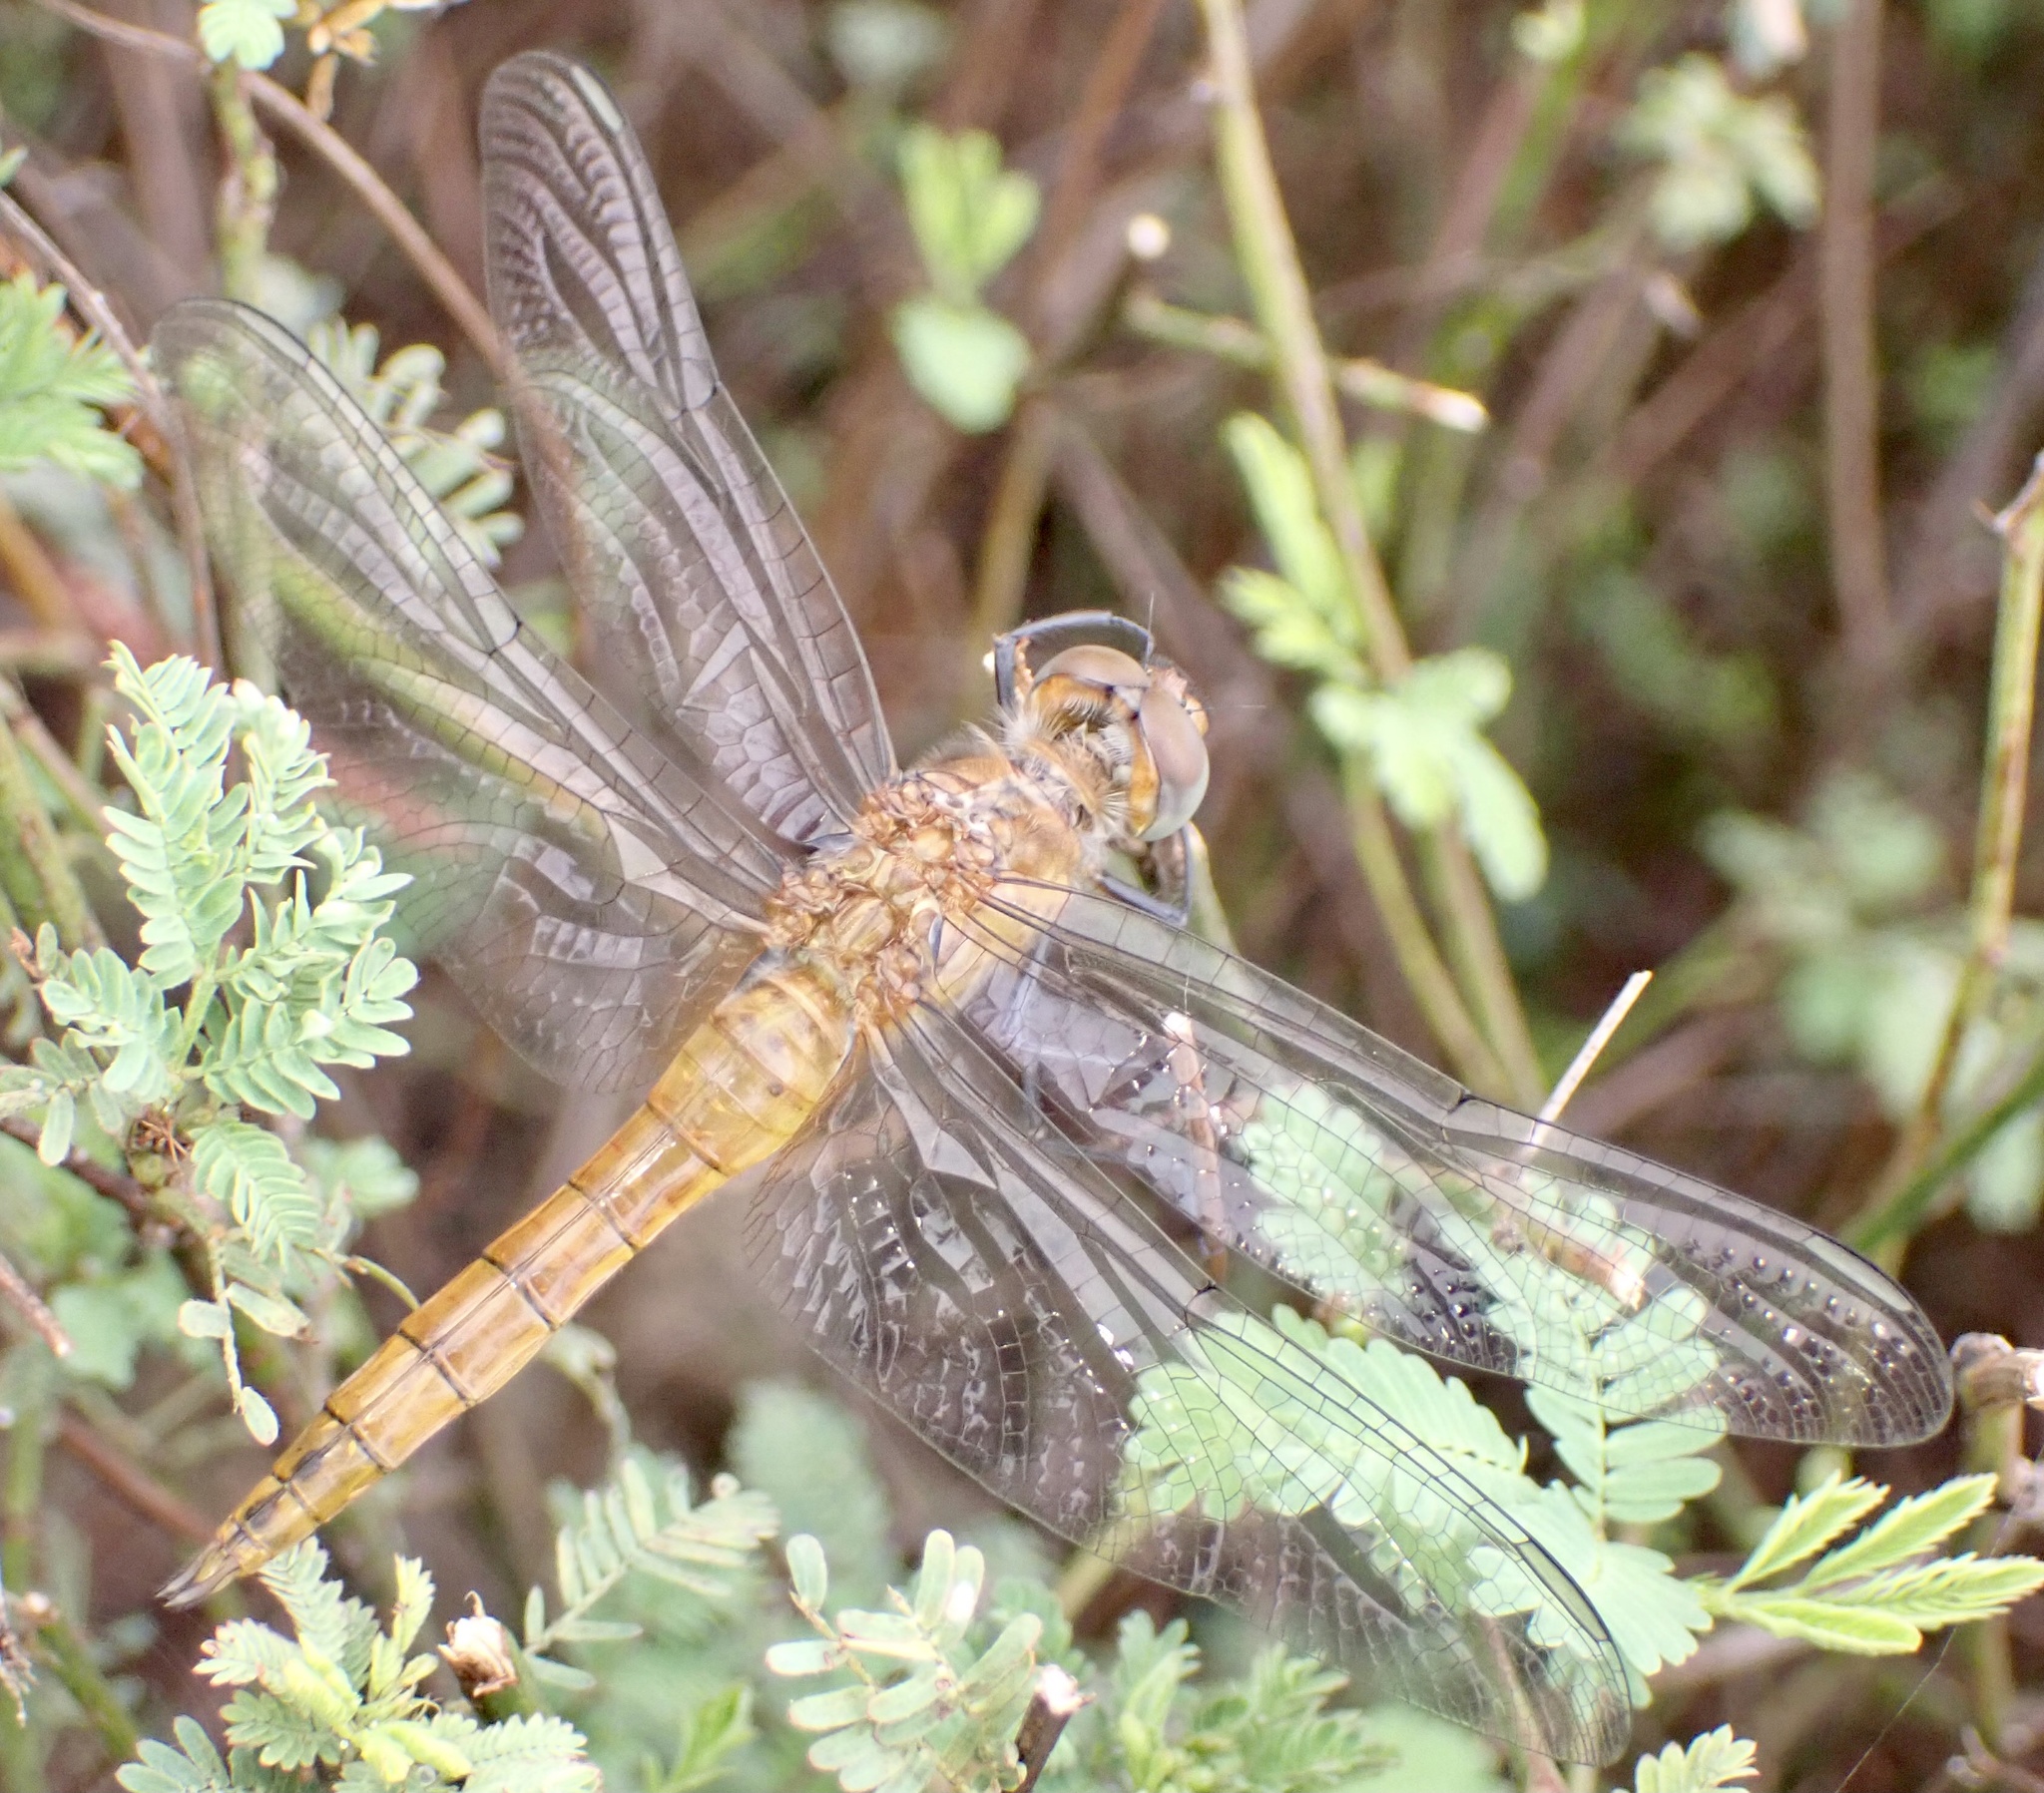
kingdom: Animalia
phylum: Arthropoda
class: Insecta
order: Odonata
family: Libellulidae
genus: Pantala
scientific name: Pantala flavescens
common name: Wandering glider
